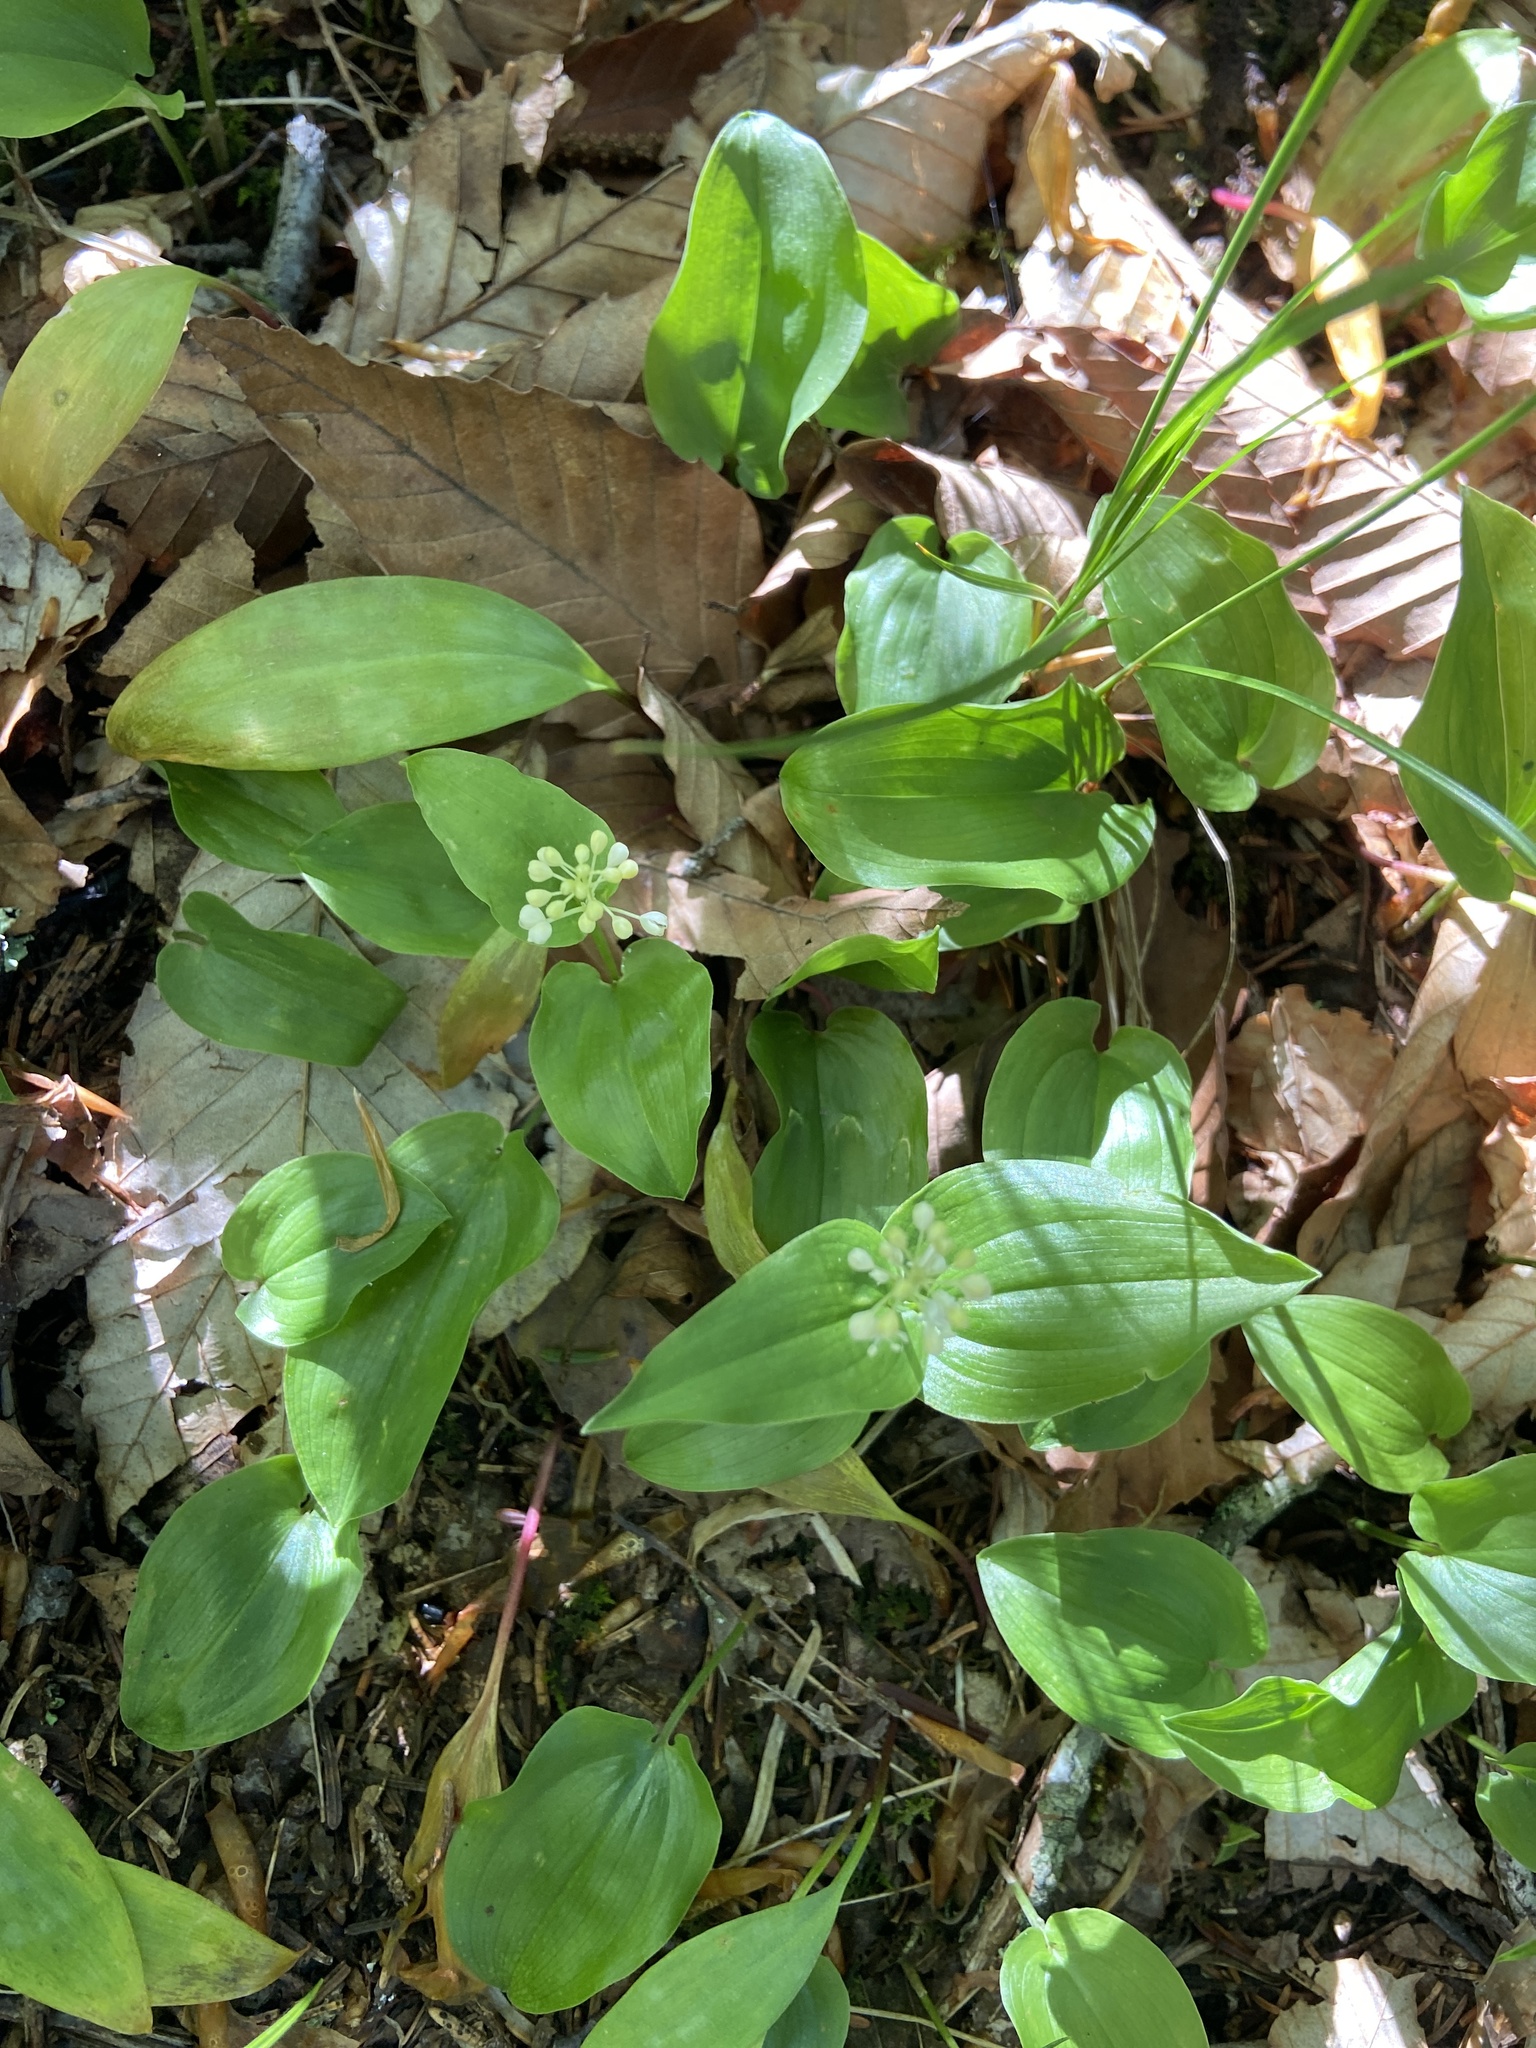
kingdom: Plantae
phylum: Tracheophyta
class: Liliopsida
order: Asparagales
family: Asparagaceae
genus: Maianthemum
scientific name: Maianthemum canadense
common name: False lily-of-the-valley
